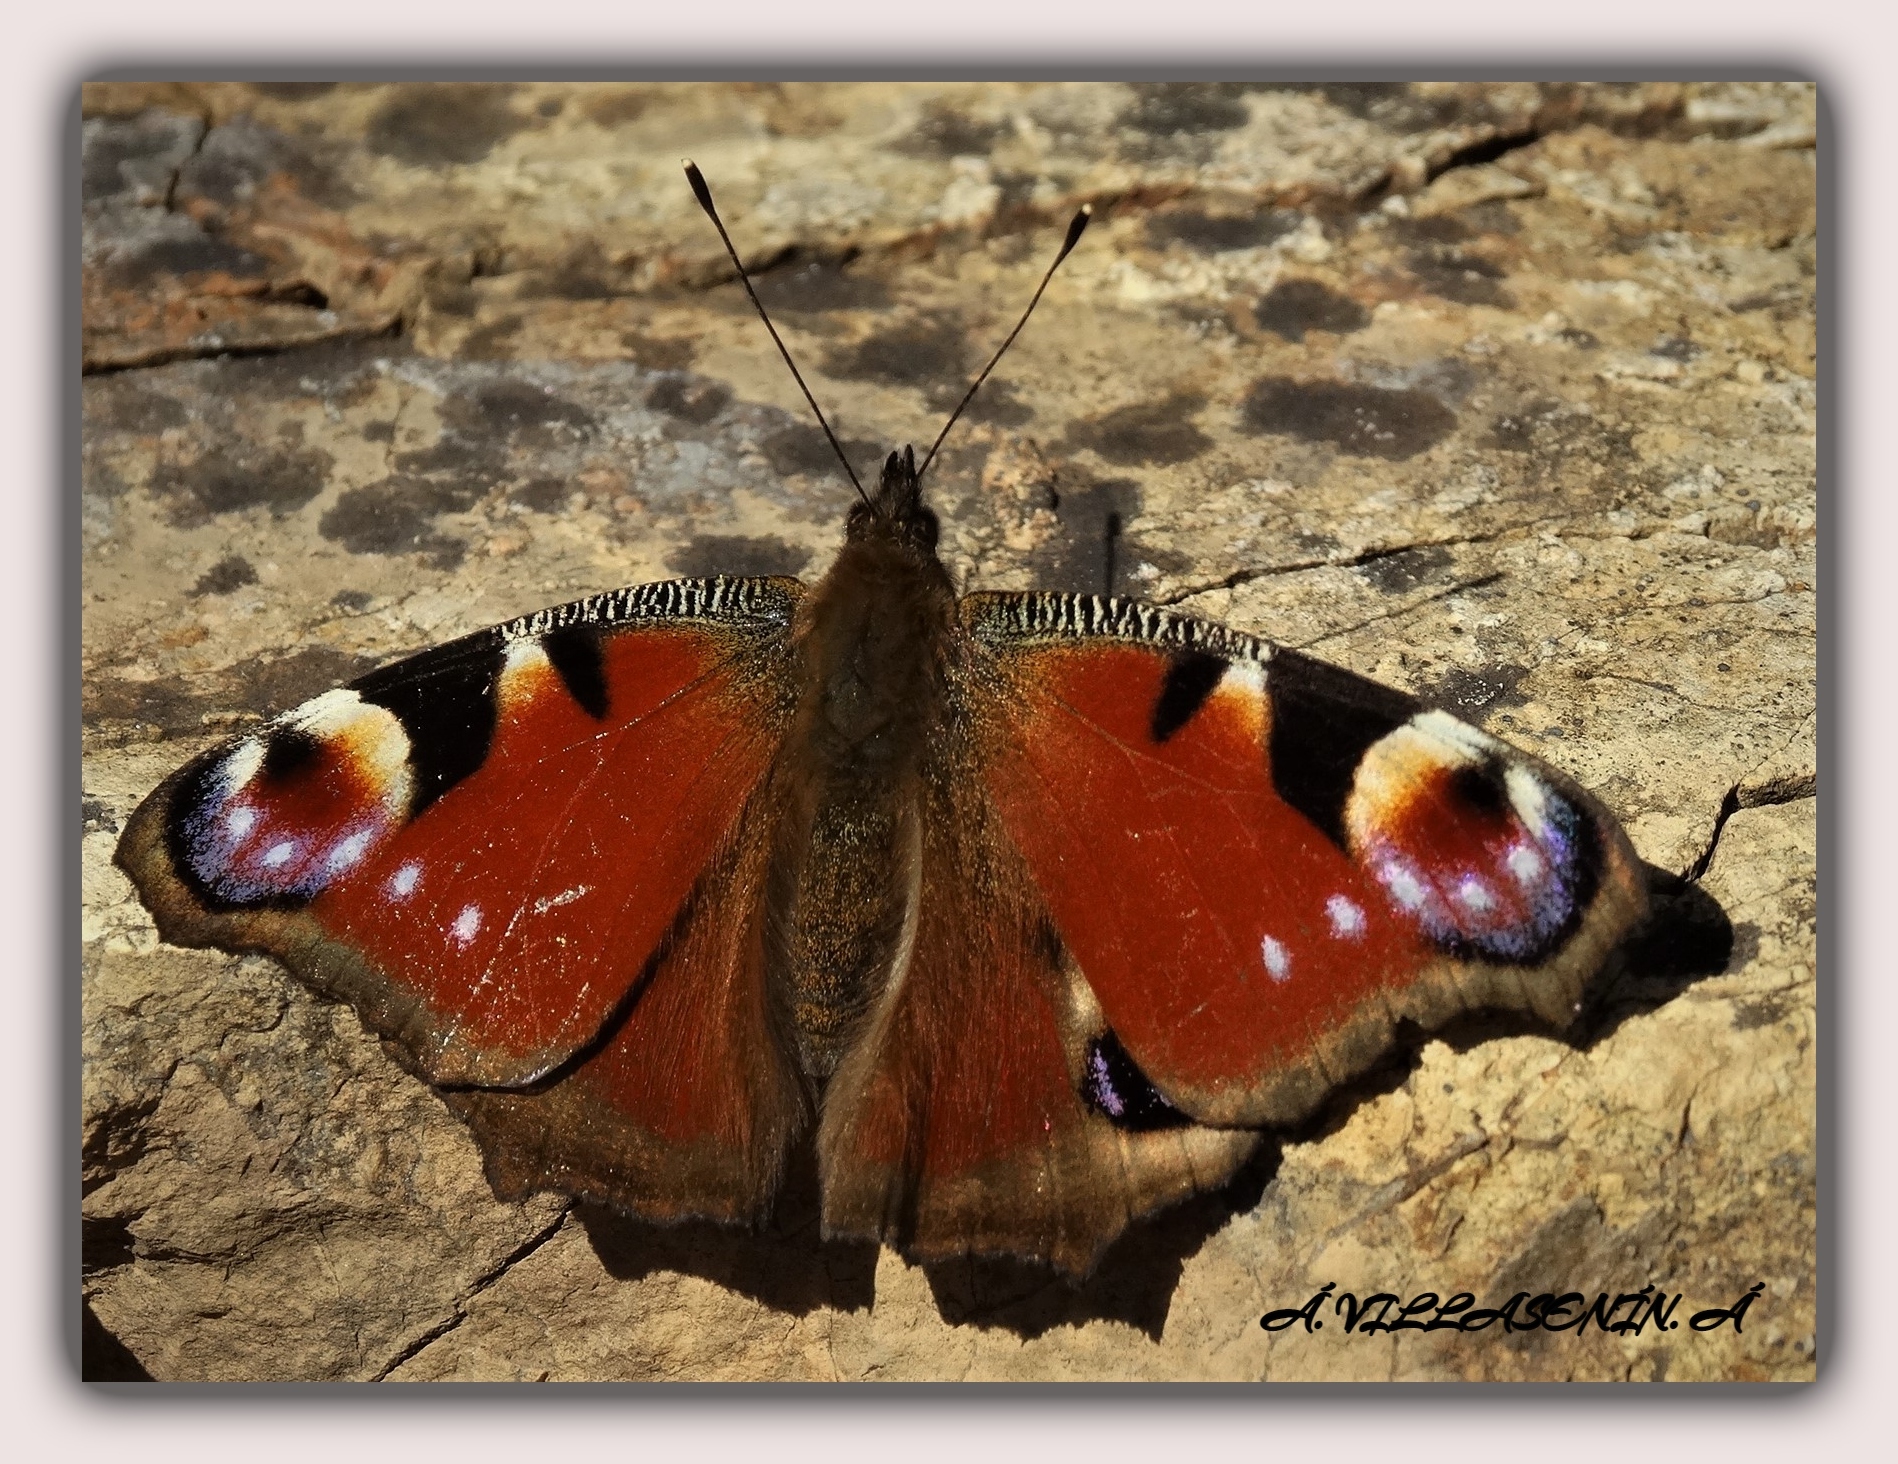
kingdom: Animalia
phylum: Arthropoda
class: Insecta
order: Lepidoptera
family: Nymphalidae
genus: Aglais
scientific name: Aglais io
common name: Peacock
